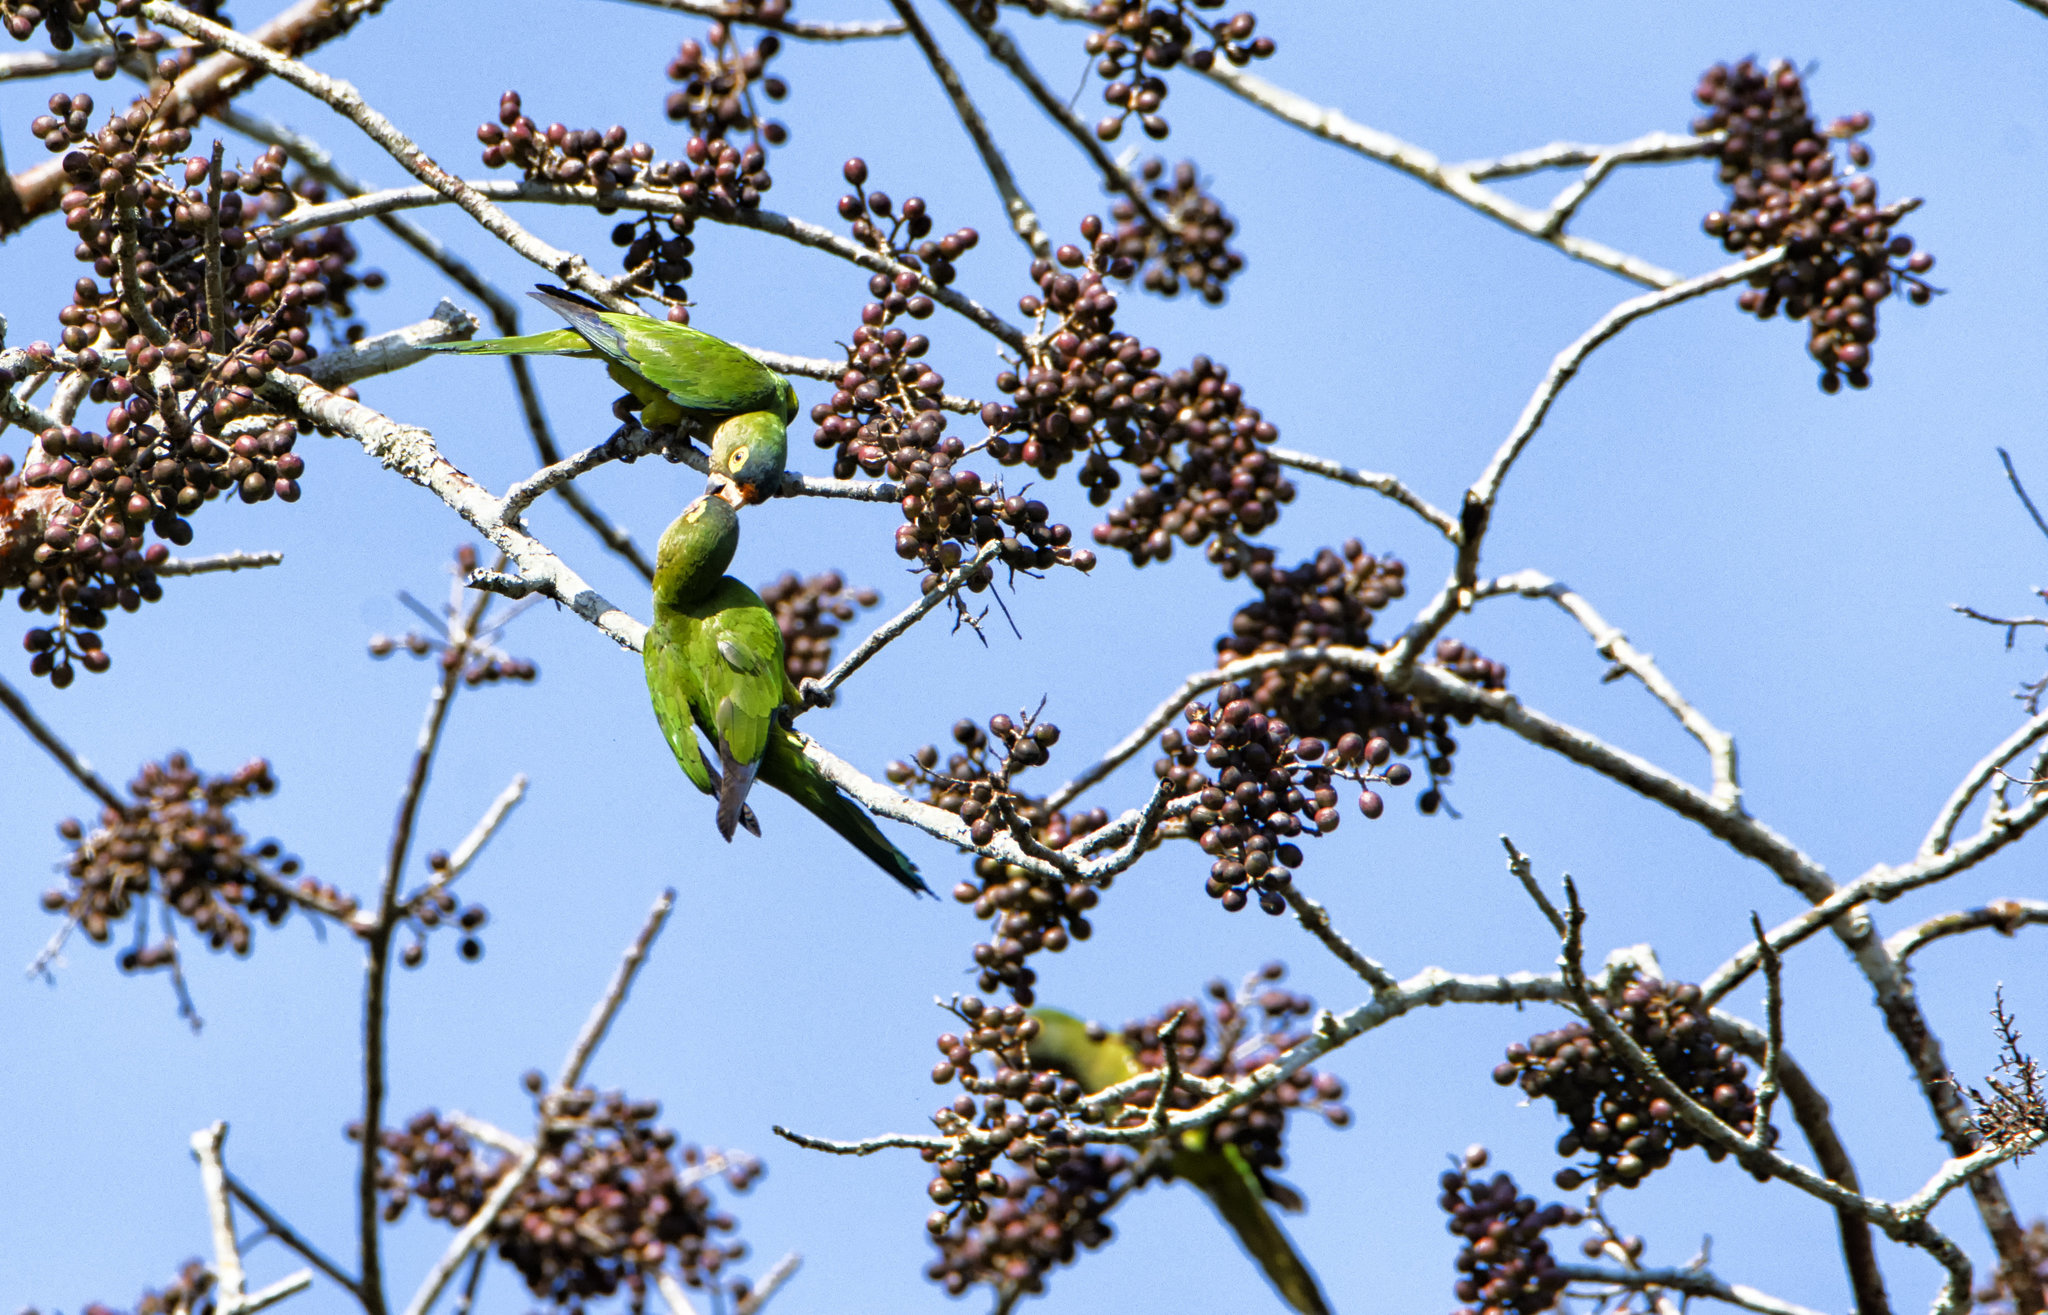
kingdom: Animalia
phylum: Chordata
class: Aves
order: Psittaciformes
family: Psittacidae
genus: Aratinga
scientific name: Aratinga canicularis
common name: Orange-fronted parakeet
